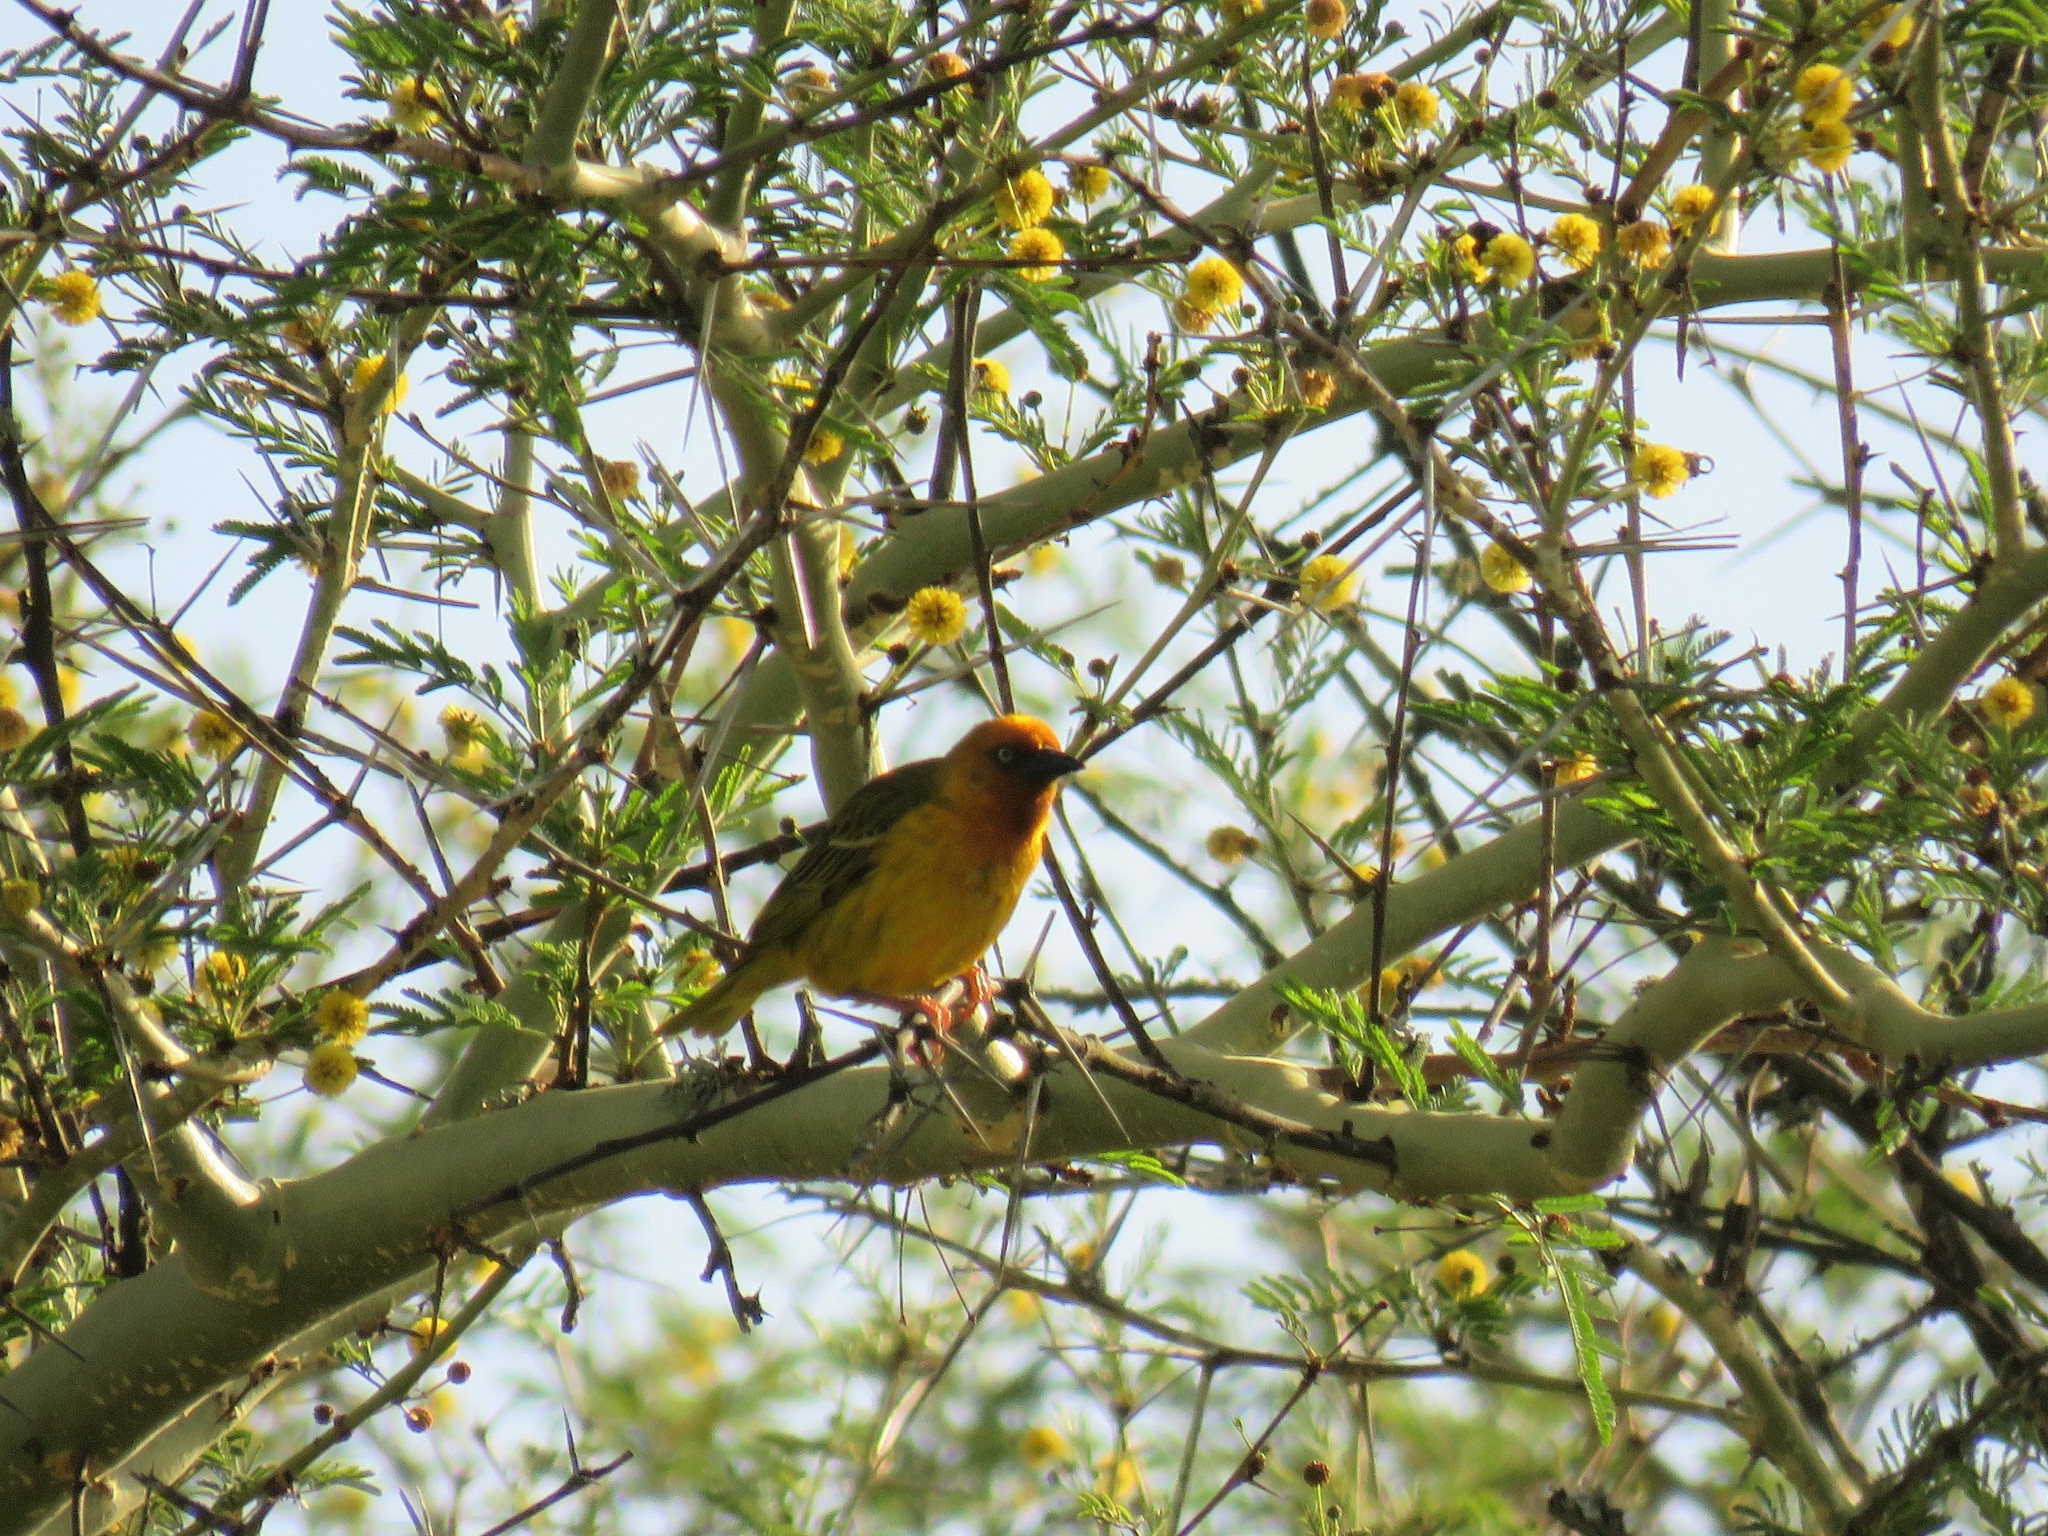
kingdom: Animalia
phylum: Chordata
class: Aves
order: Passeriformes
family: Ploceidae
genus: Ploceus
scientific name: Ploceus capensis
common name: Cape weaver
